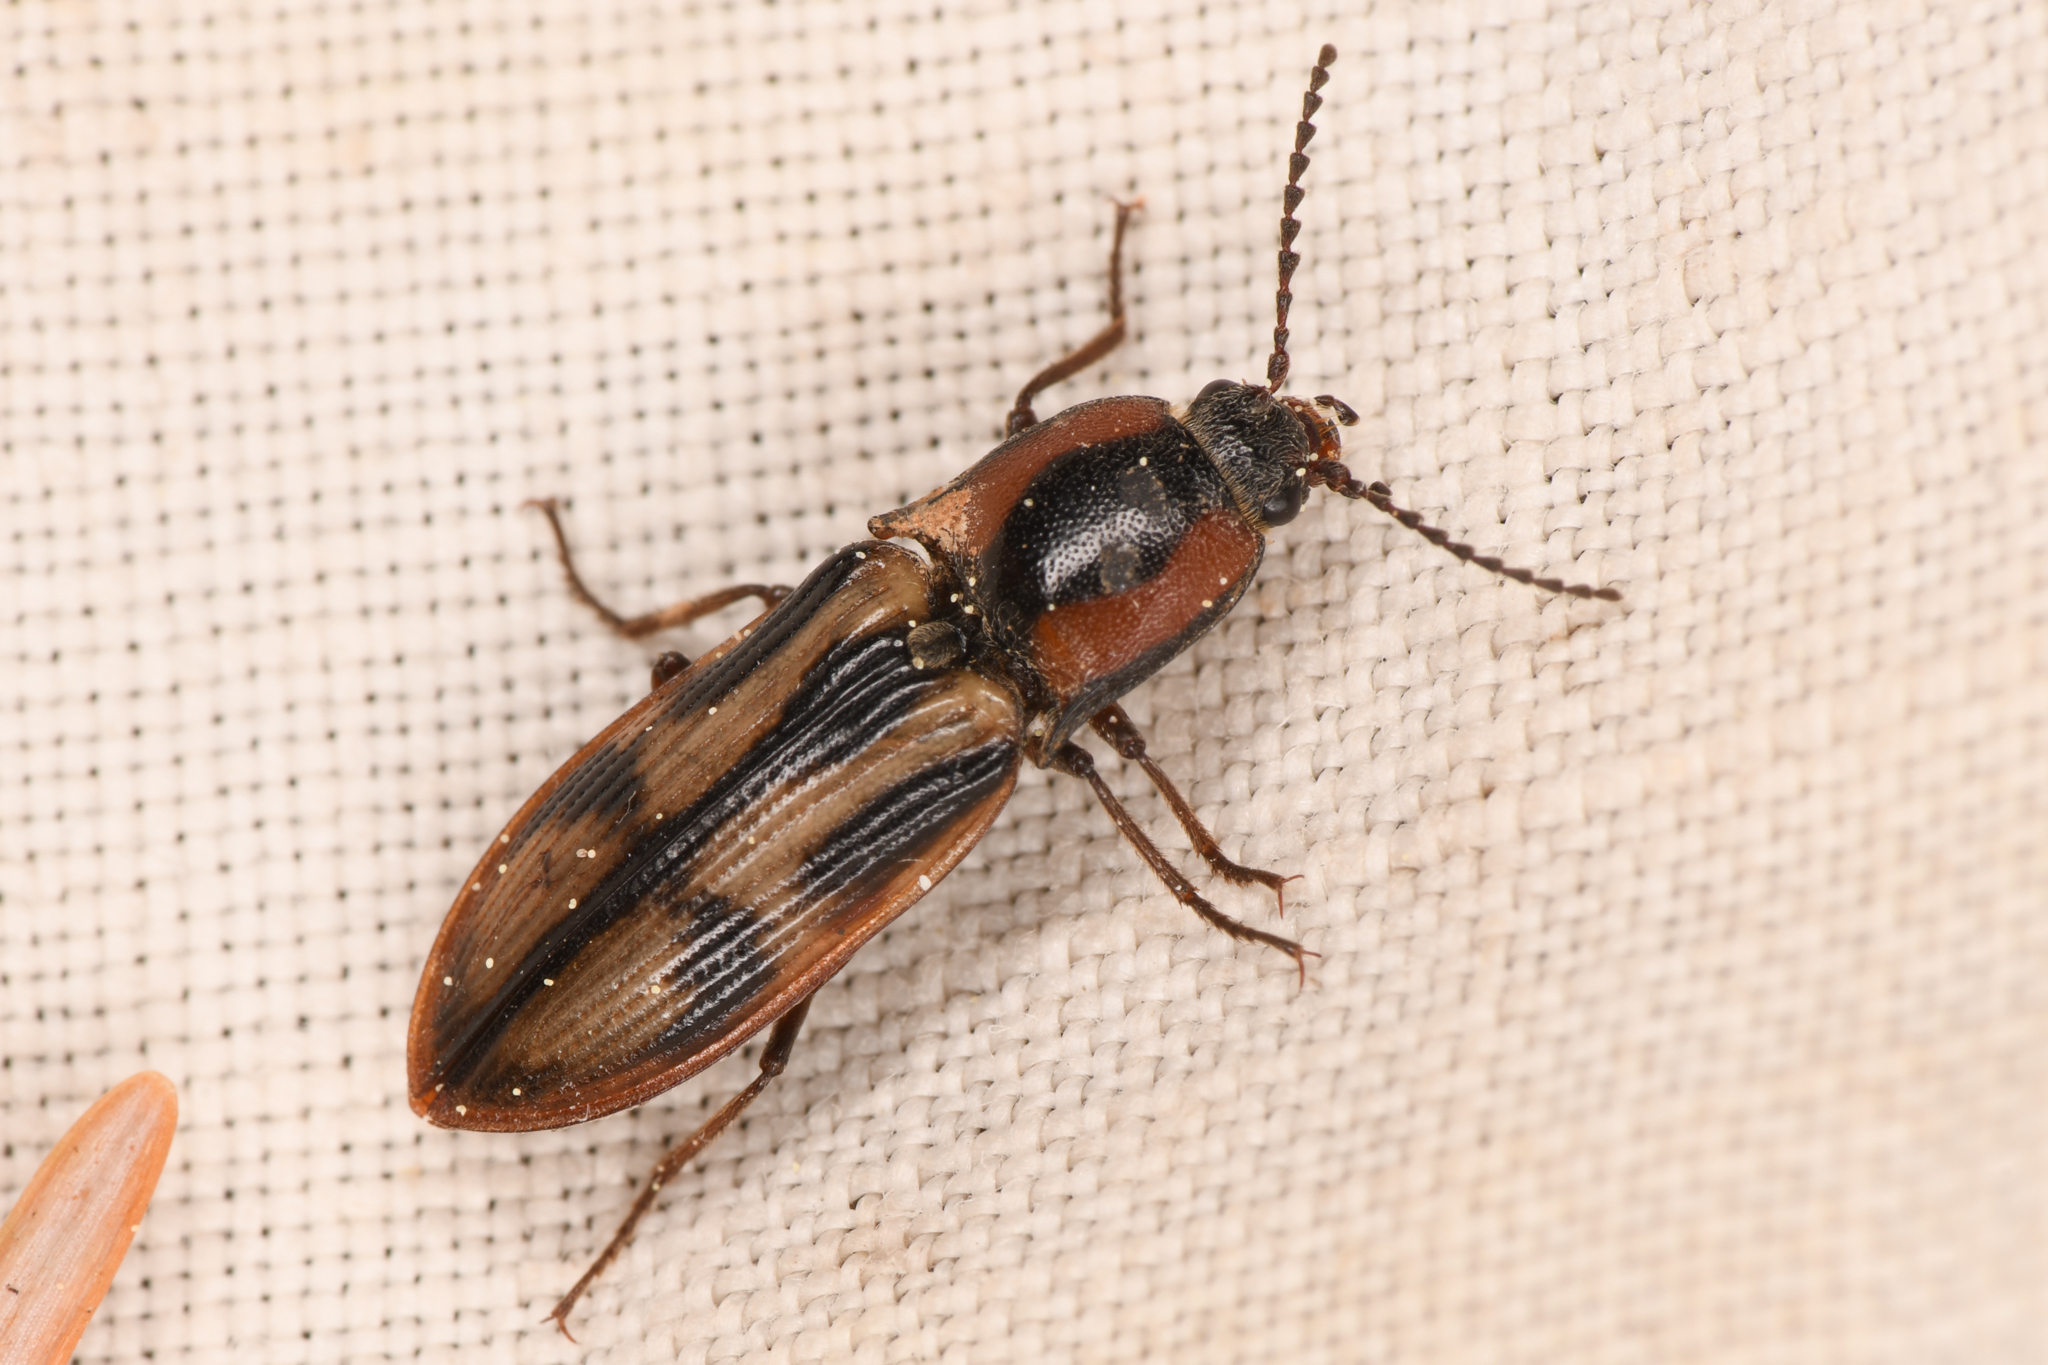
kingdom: Animalia
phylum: Arthropoda
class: Insecta
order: Coleoptera
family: Elateridae
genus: Selatosomus
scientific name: Selatosomus festivus
